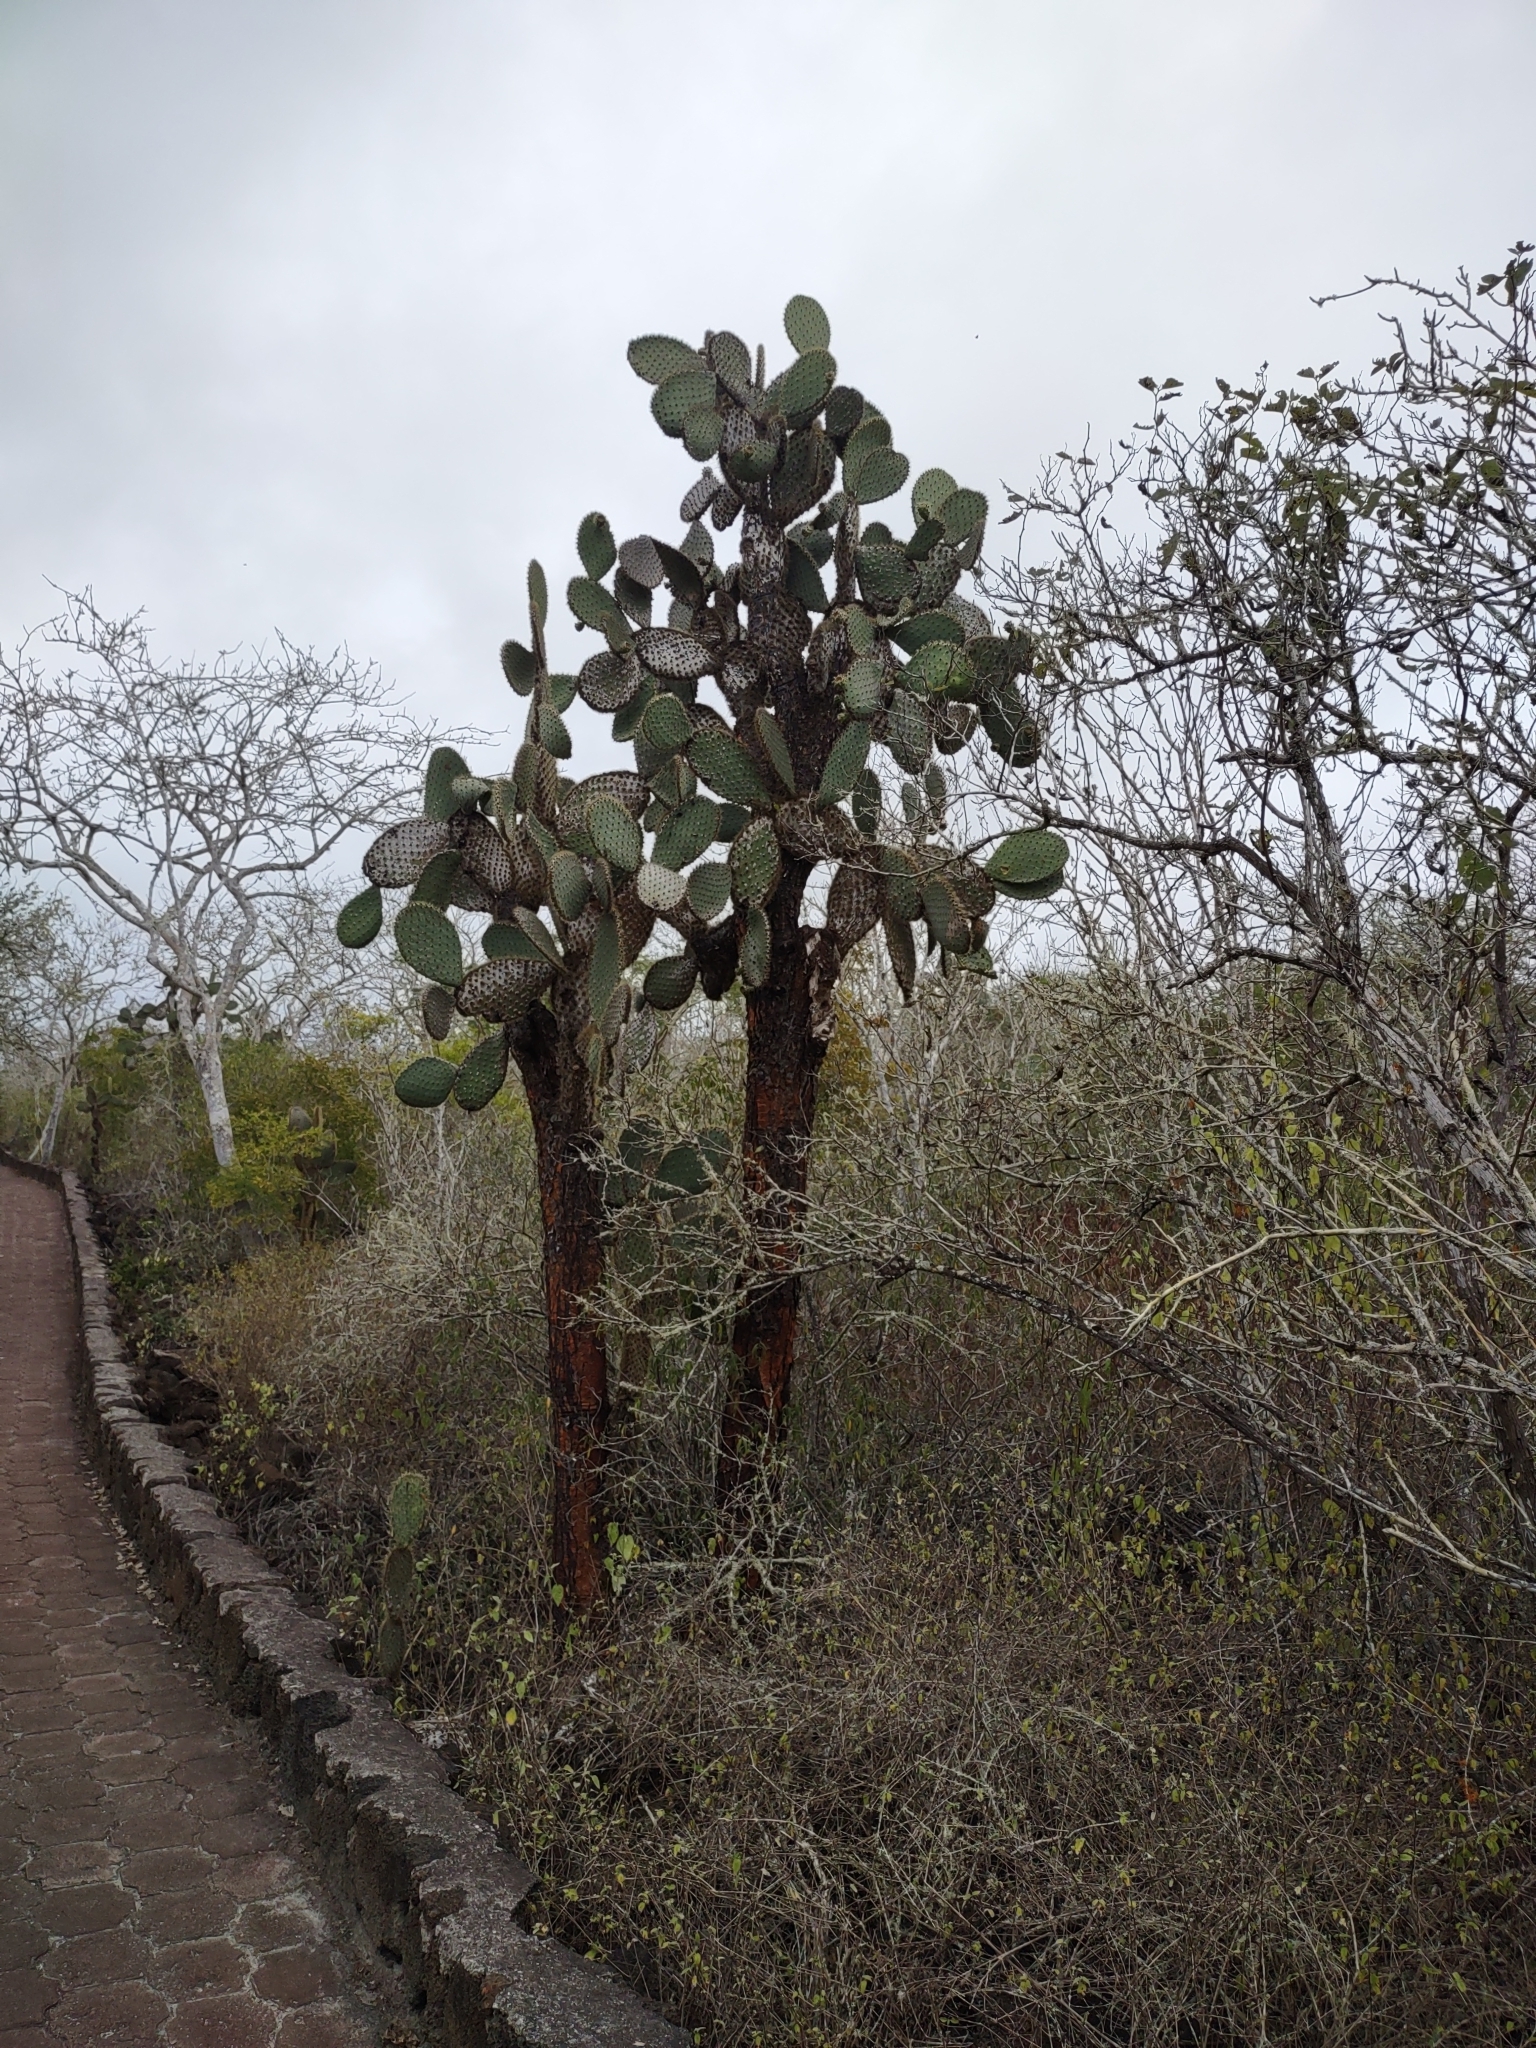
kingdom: Plantae
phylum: Tracheophyta
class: Magnoliopsida
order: Caryophyllales
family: Cactaceae
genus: Opuntia
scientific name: Opuntia galapageia
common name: Galápagos prickly pear
